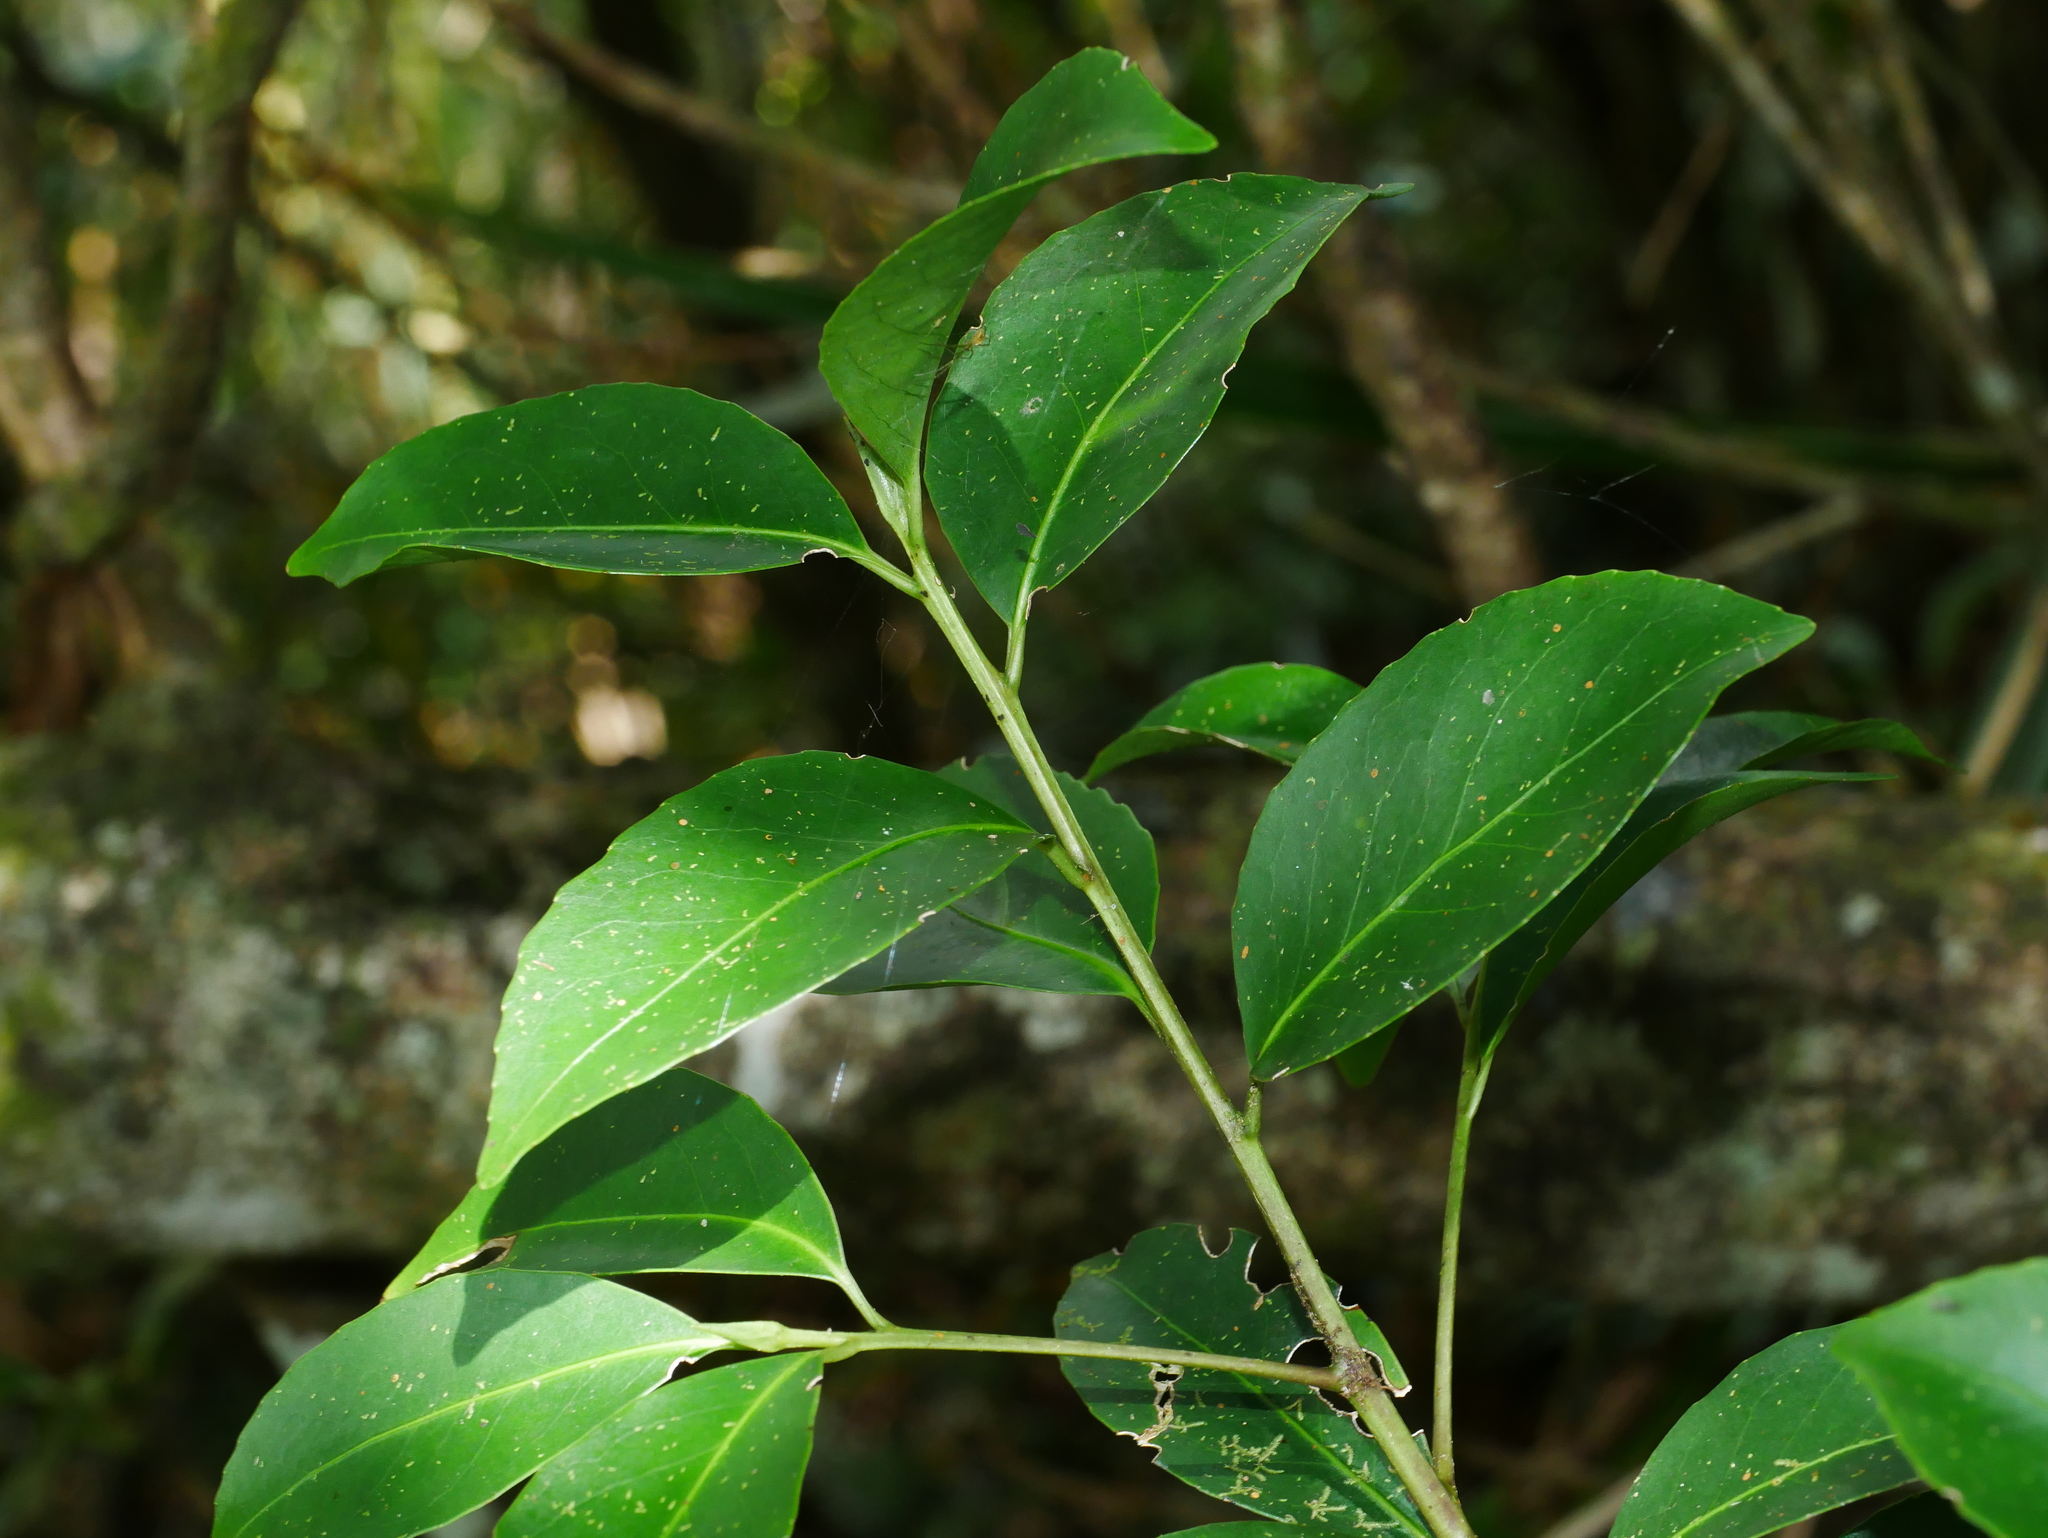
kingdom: Plantae
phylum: Tracheophyta
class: Magnoliopsida
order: Ericales
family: Symplocaceae
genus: Symplocos
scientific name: Symplocos migoi
